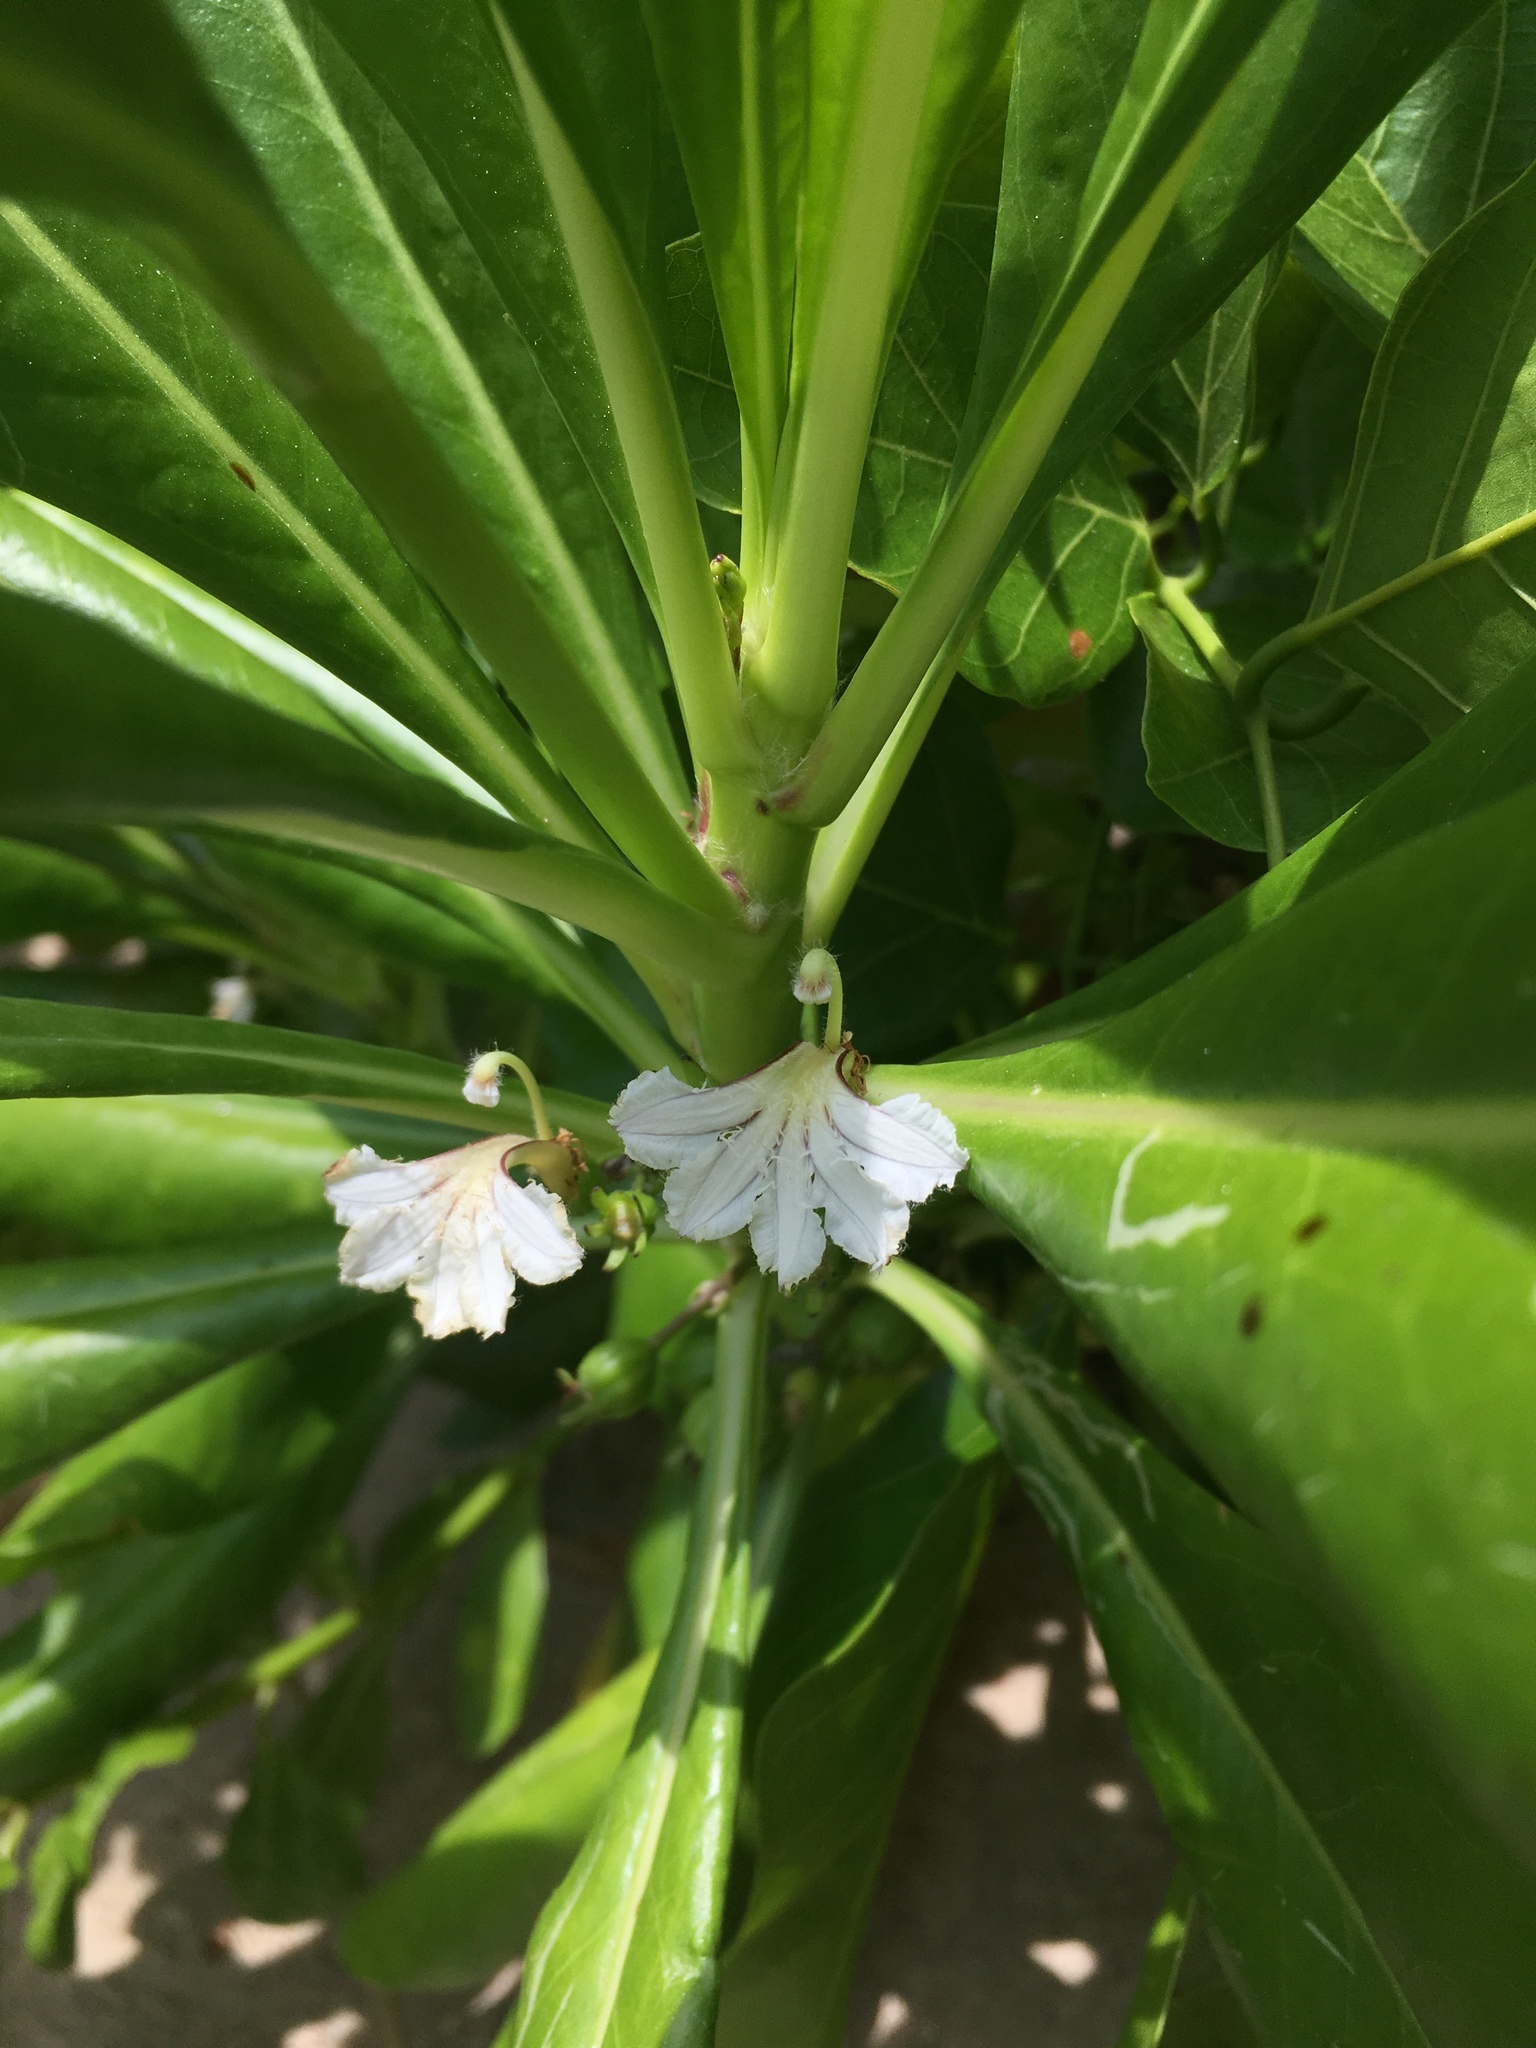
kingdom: Plantae
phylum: Tracheophyta
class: Magnoliopsida
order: Asterales
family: Goodeniaceae
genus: Scaevola
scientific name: Scaevola taccada
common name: Sea lettucetree
